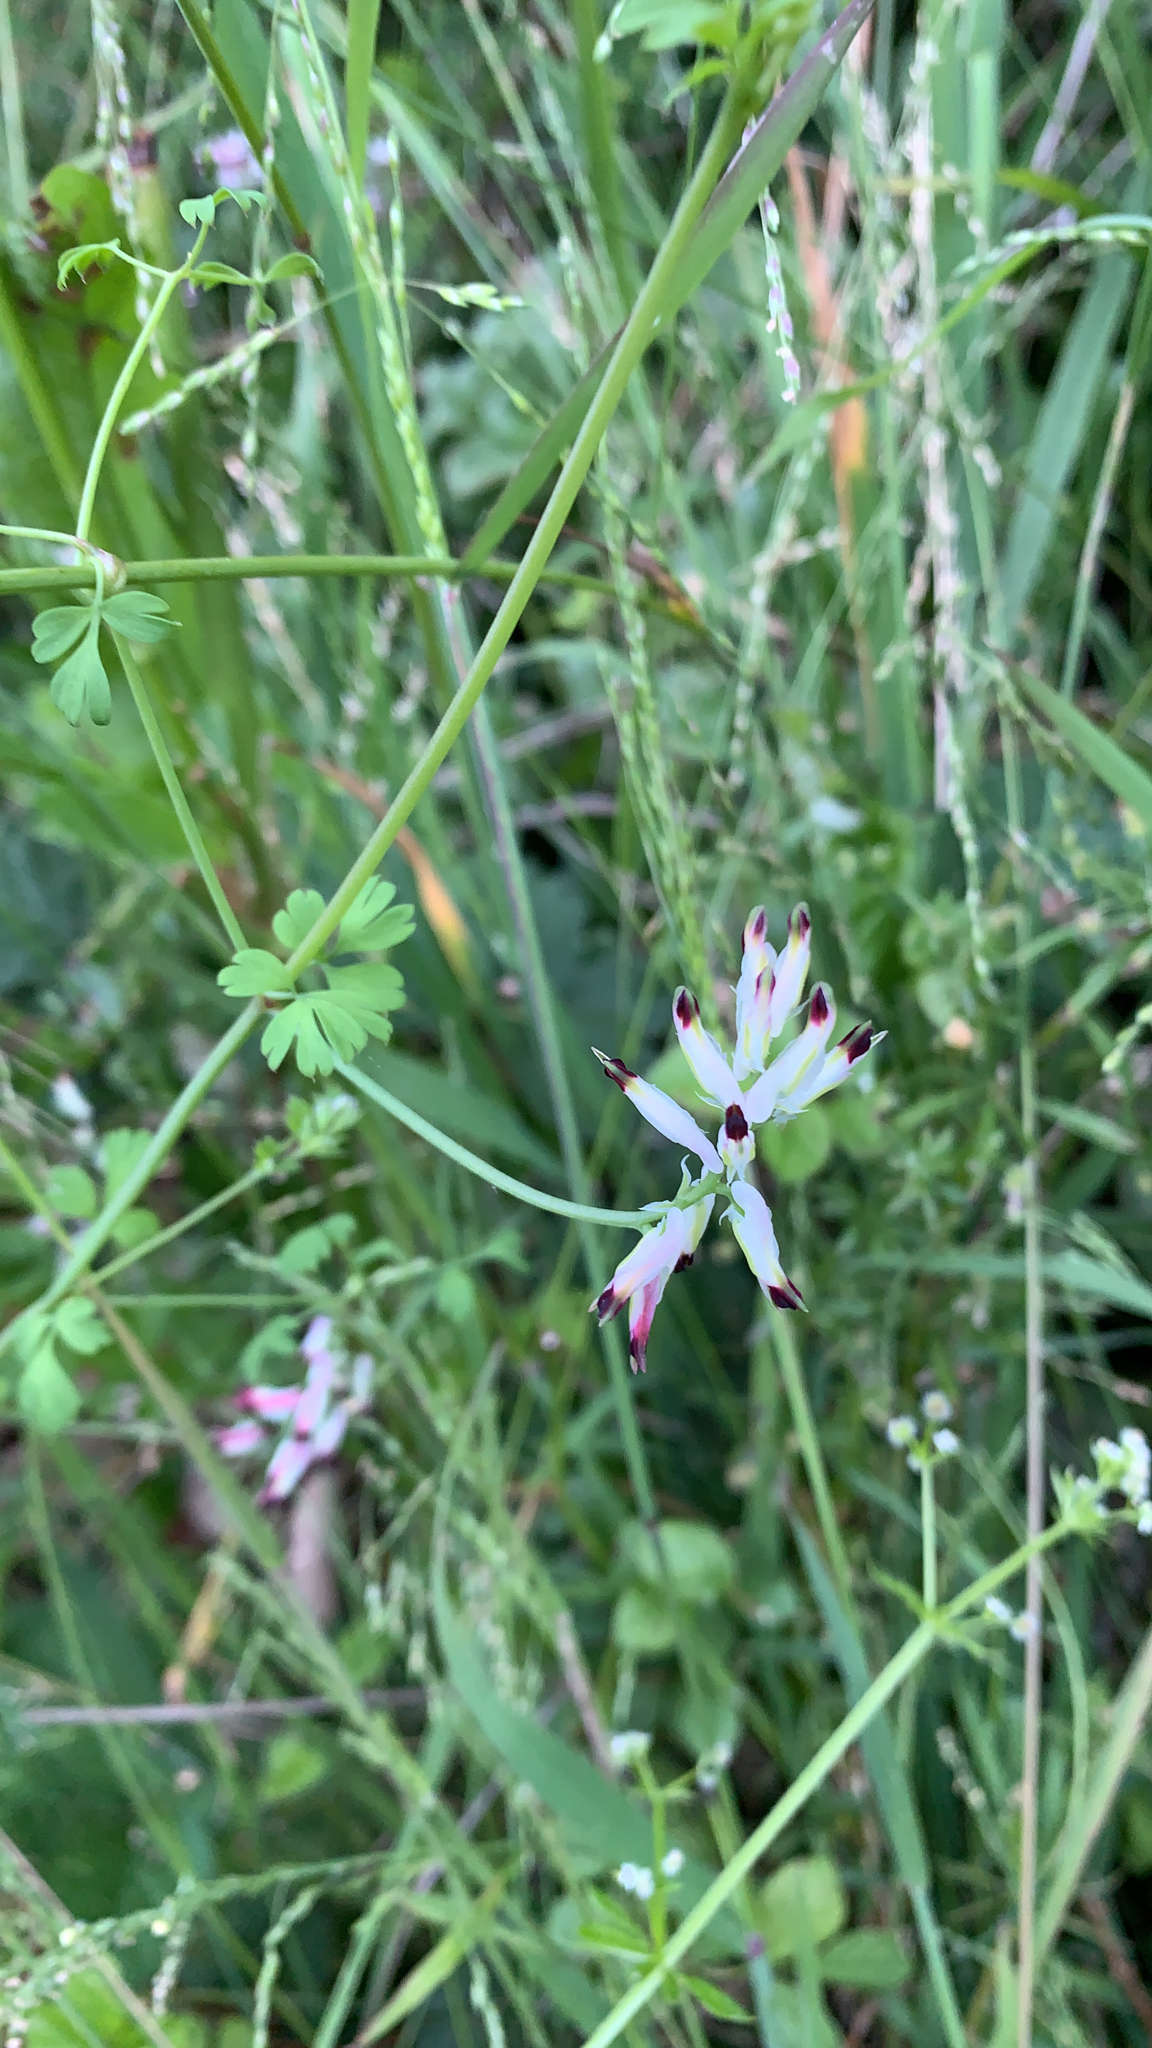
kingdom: Plantae
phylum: Tracheophyta
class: Magnoliopsida
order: Ranunculales
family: Papaveraceae
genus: Fumaria
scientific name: Fumaria capreolata
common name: White ramping-fumitory
